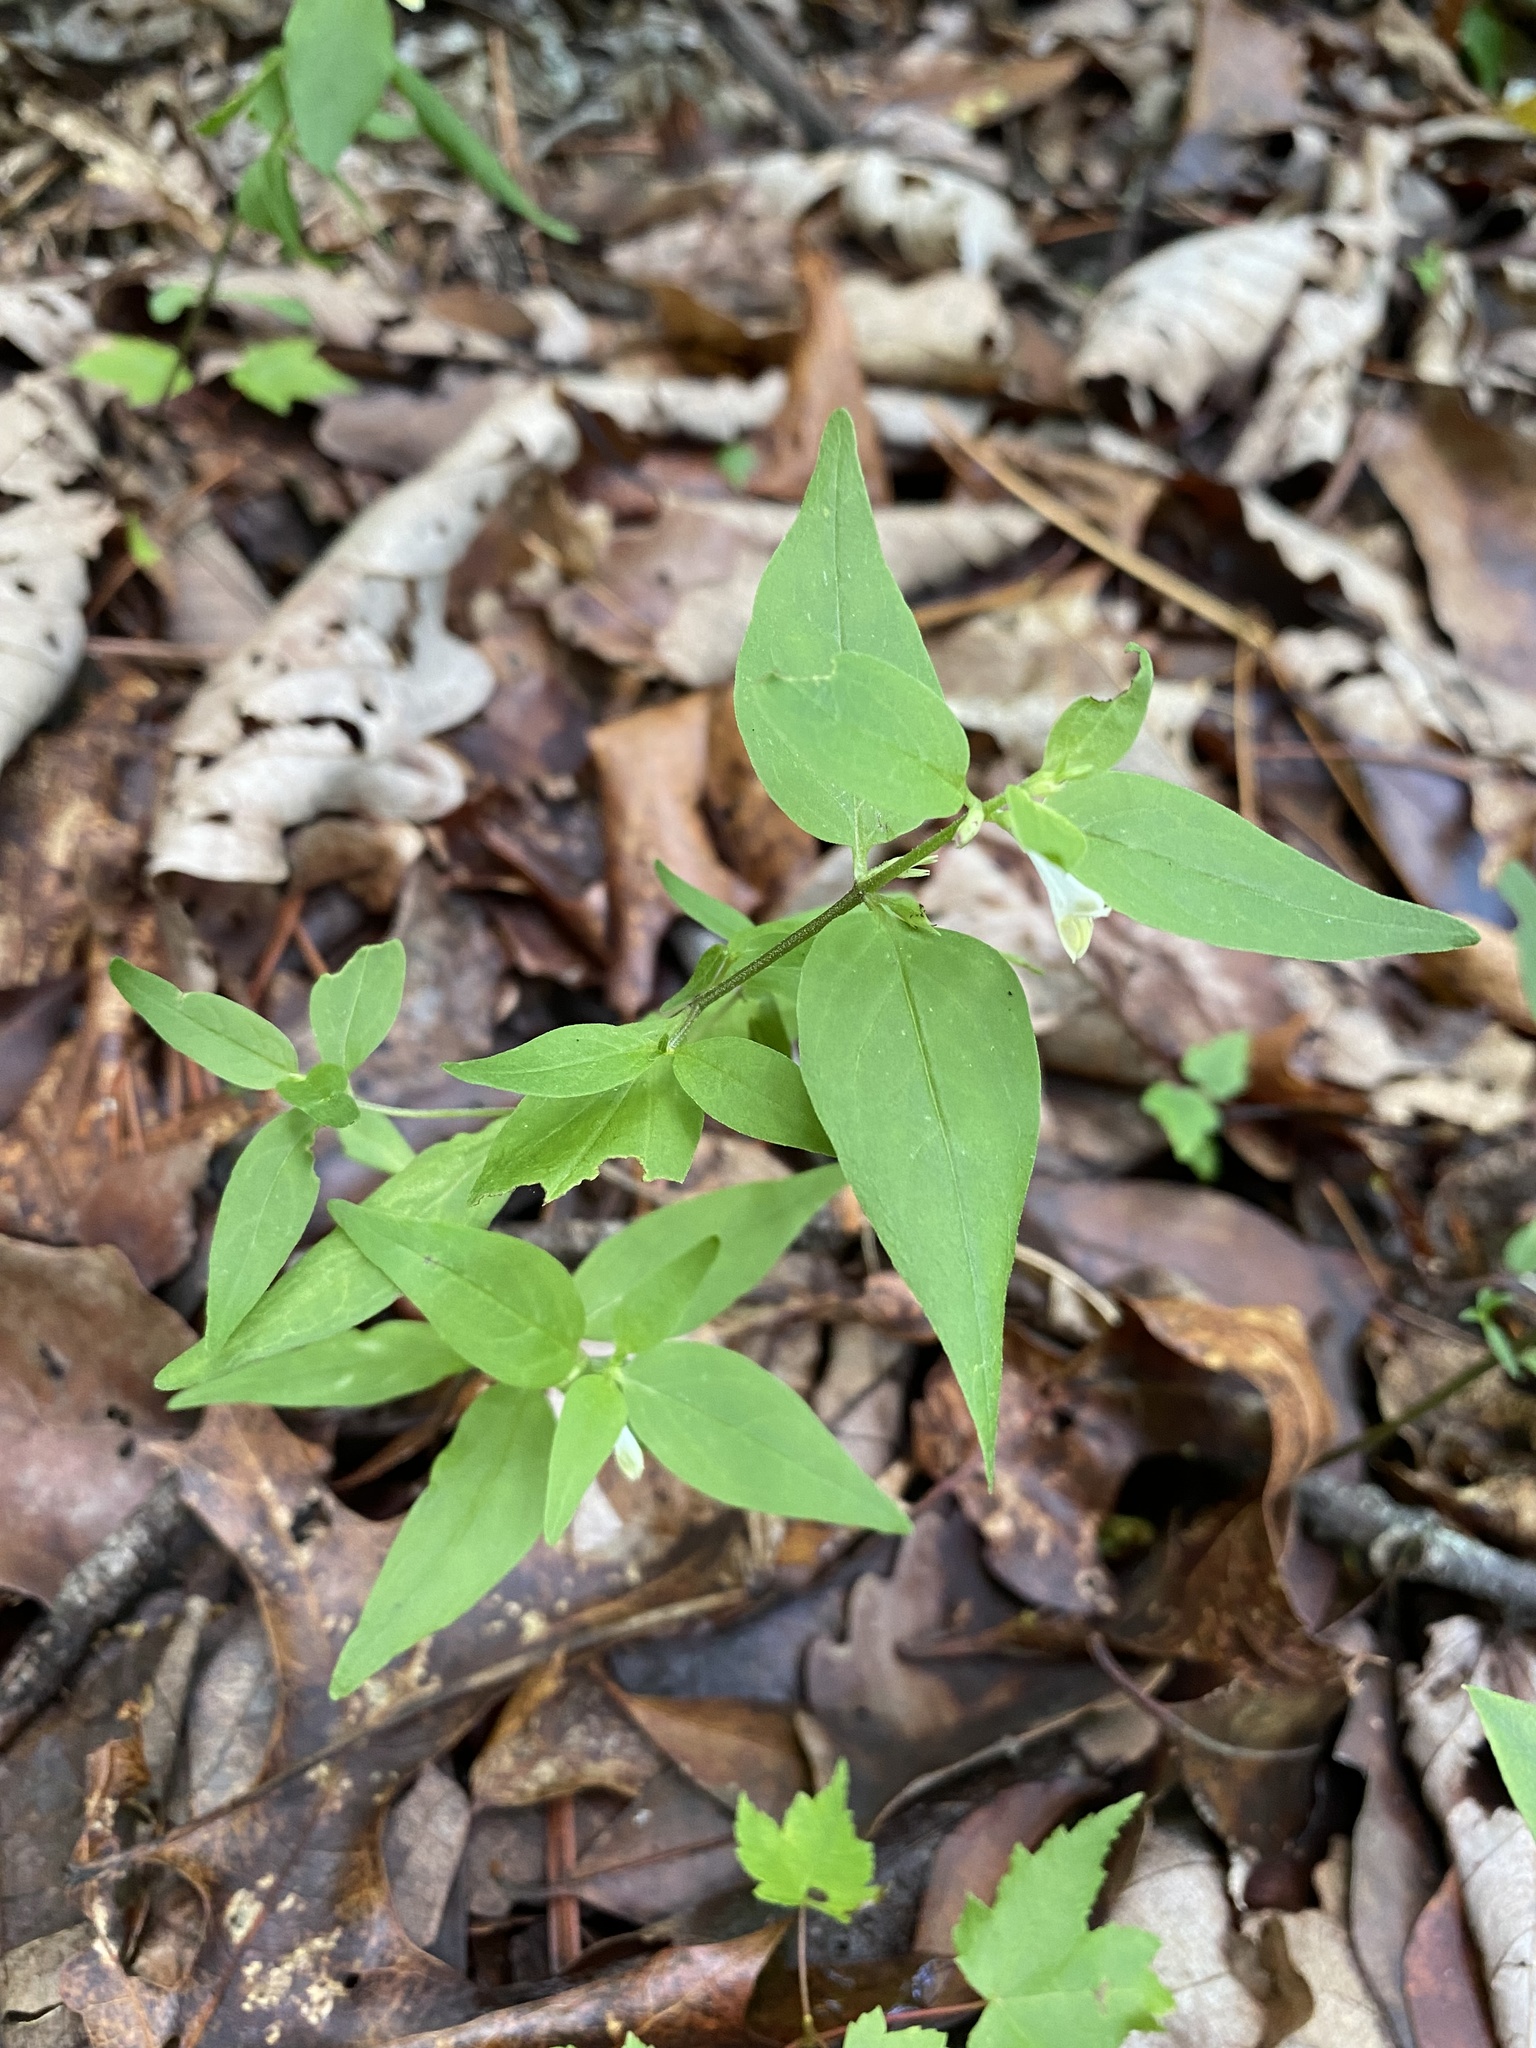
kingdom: Plantae
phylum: Tracheophyta
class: Magnoliopsida
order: Lamiales
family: Orobanchaceae
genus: Melampyrum
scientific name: Melampyrum lineare
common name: American cow-wheat
